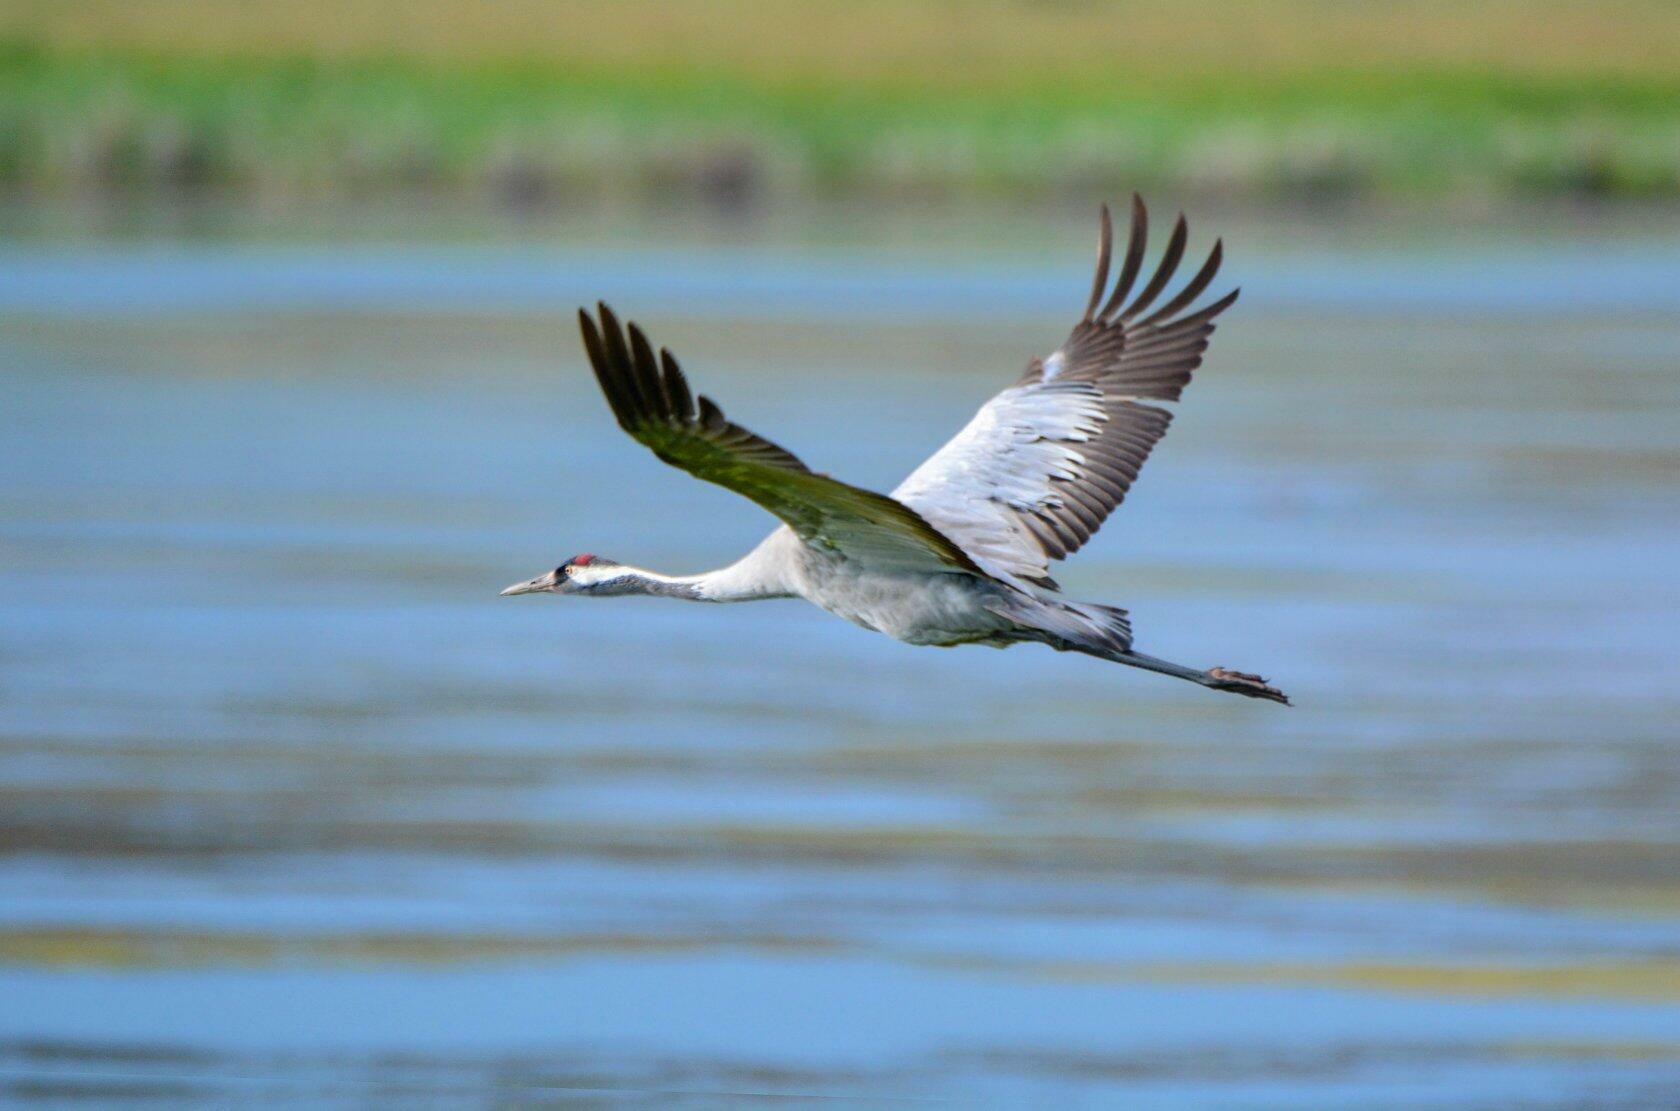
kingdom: Animalia
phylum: Chordata
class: Aves
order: Gruiformes
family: Gruidae
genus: Grus
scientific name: Grus grus
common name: Common crane
